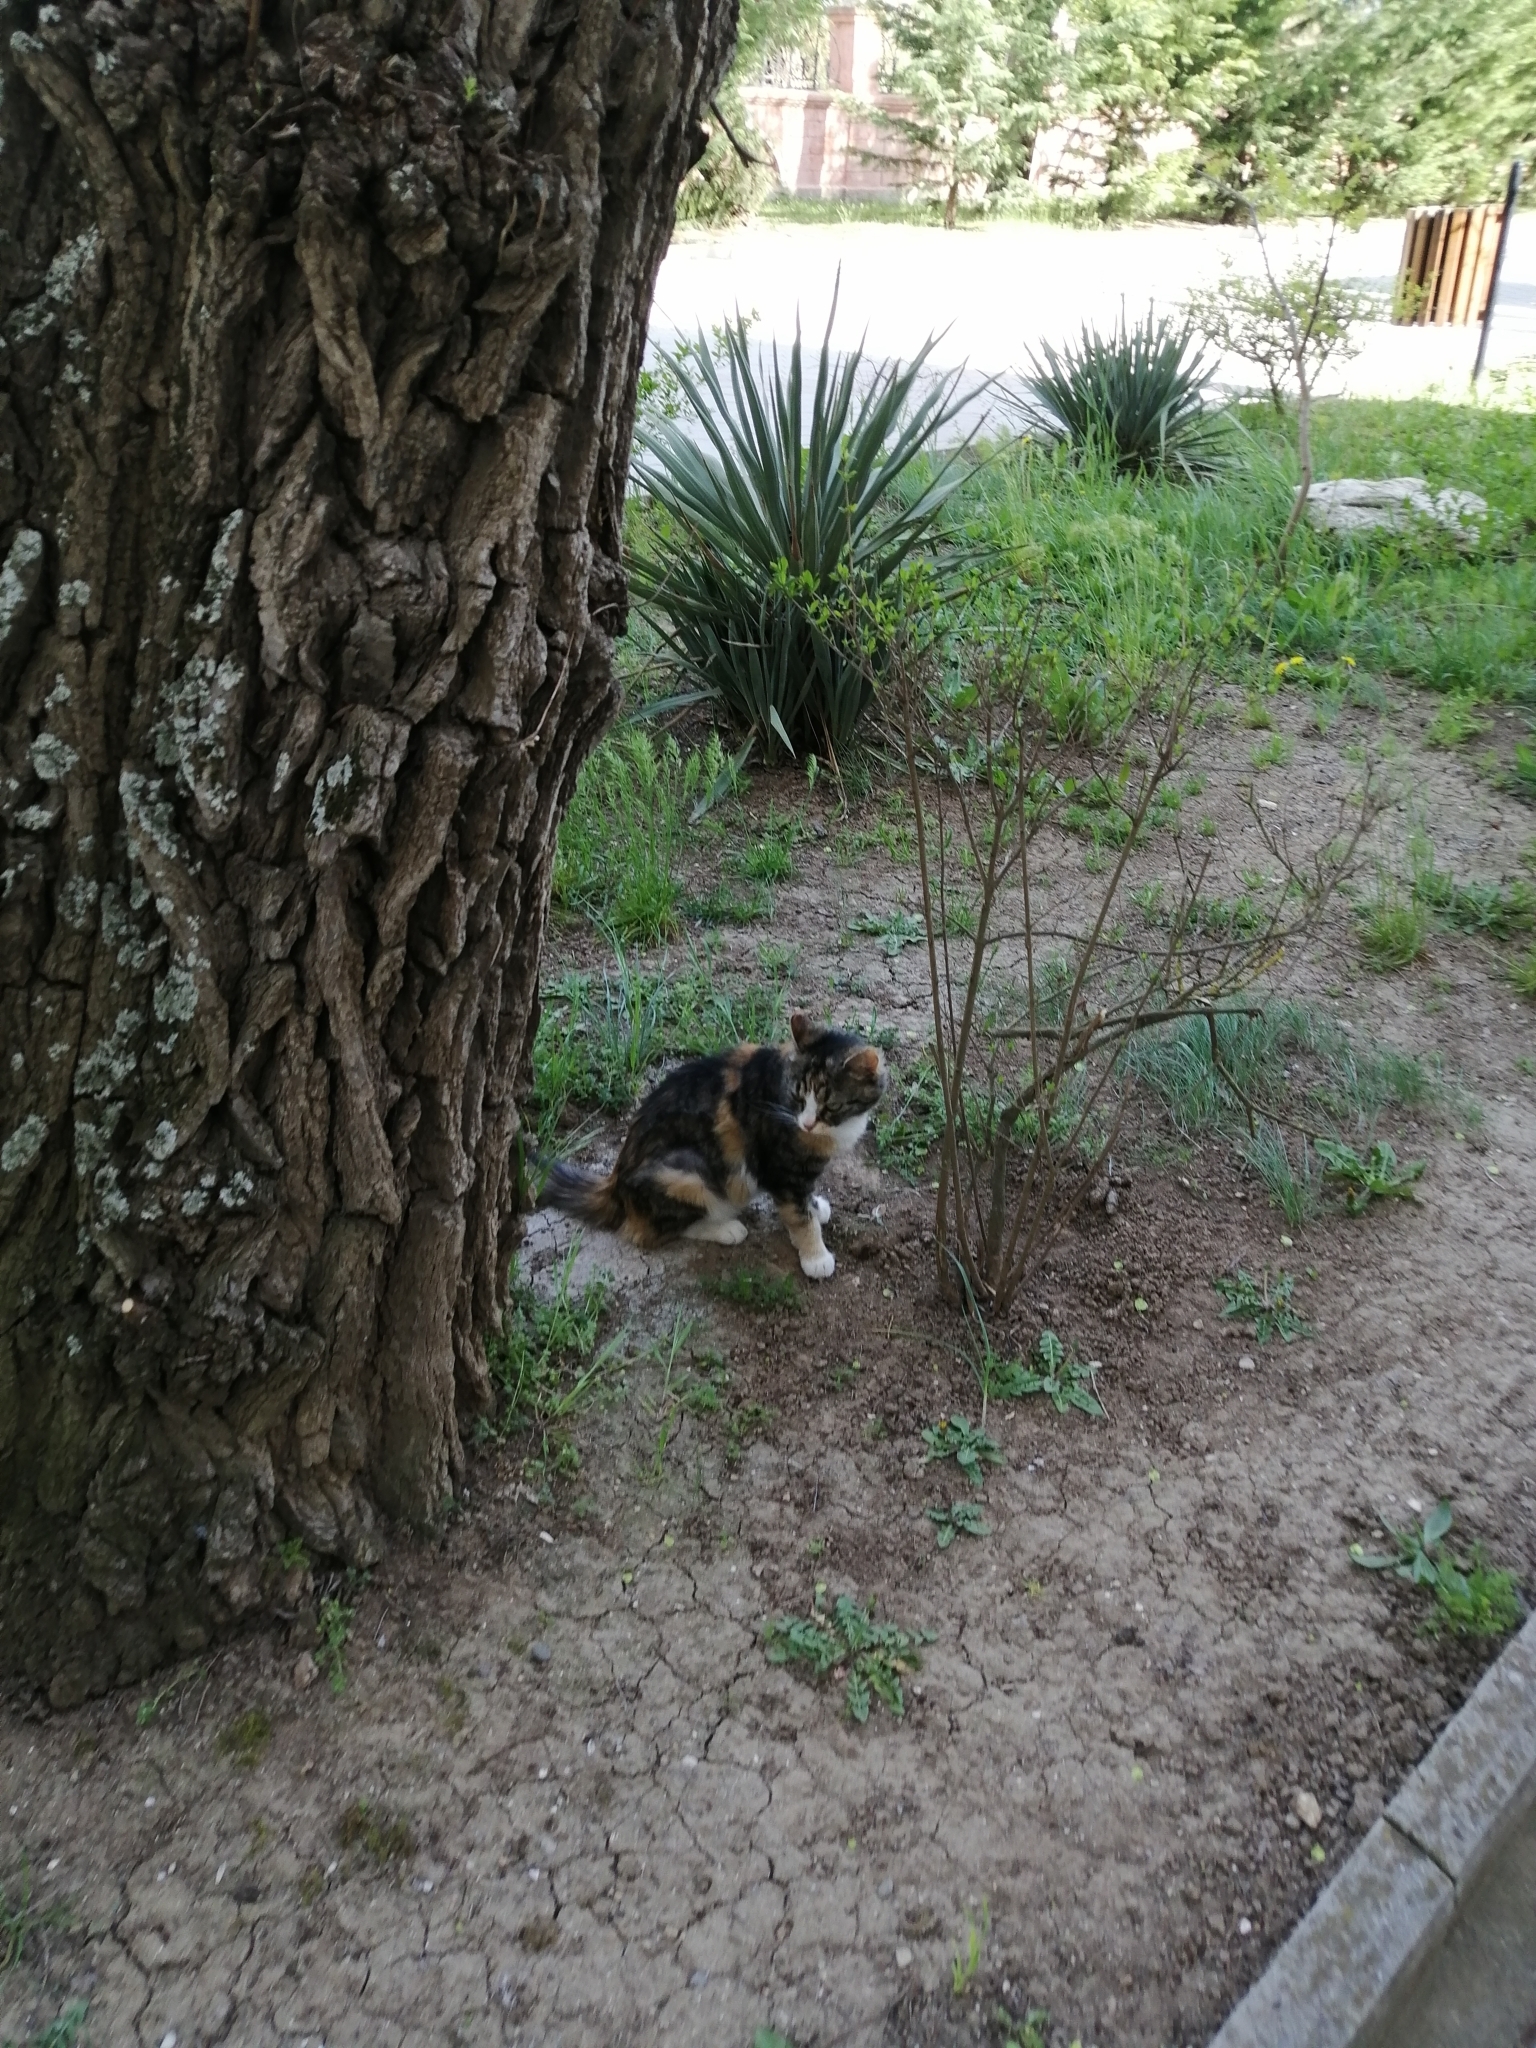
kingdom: Animalia
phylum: Chordata
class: Mammalia
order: Carnivora
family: Felidae
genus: Felis
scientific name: Felis catus
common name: Domestic cat
